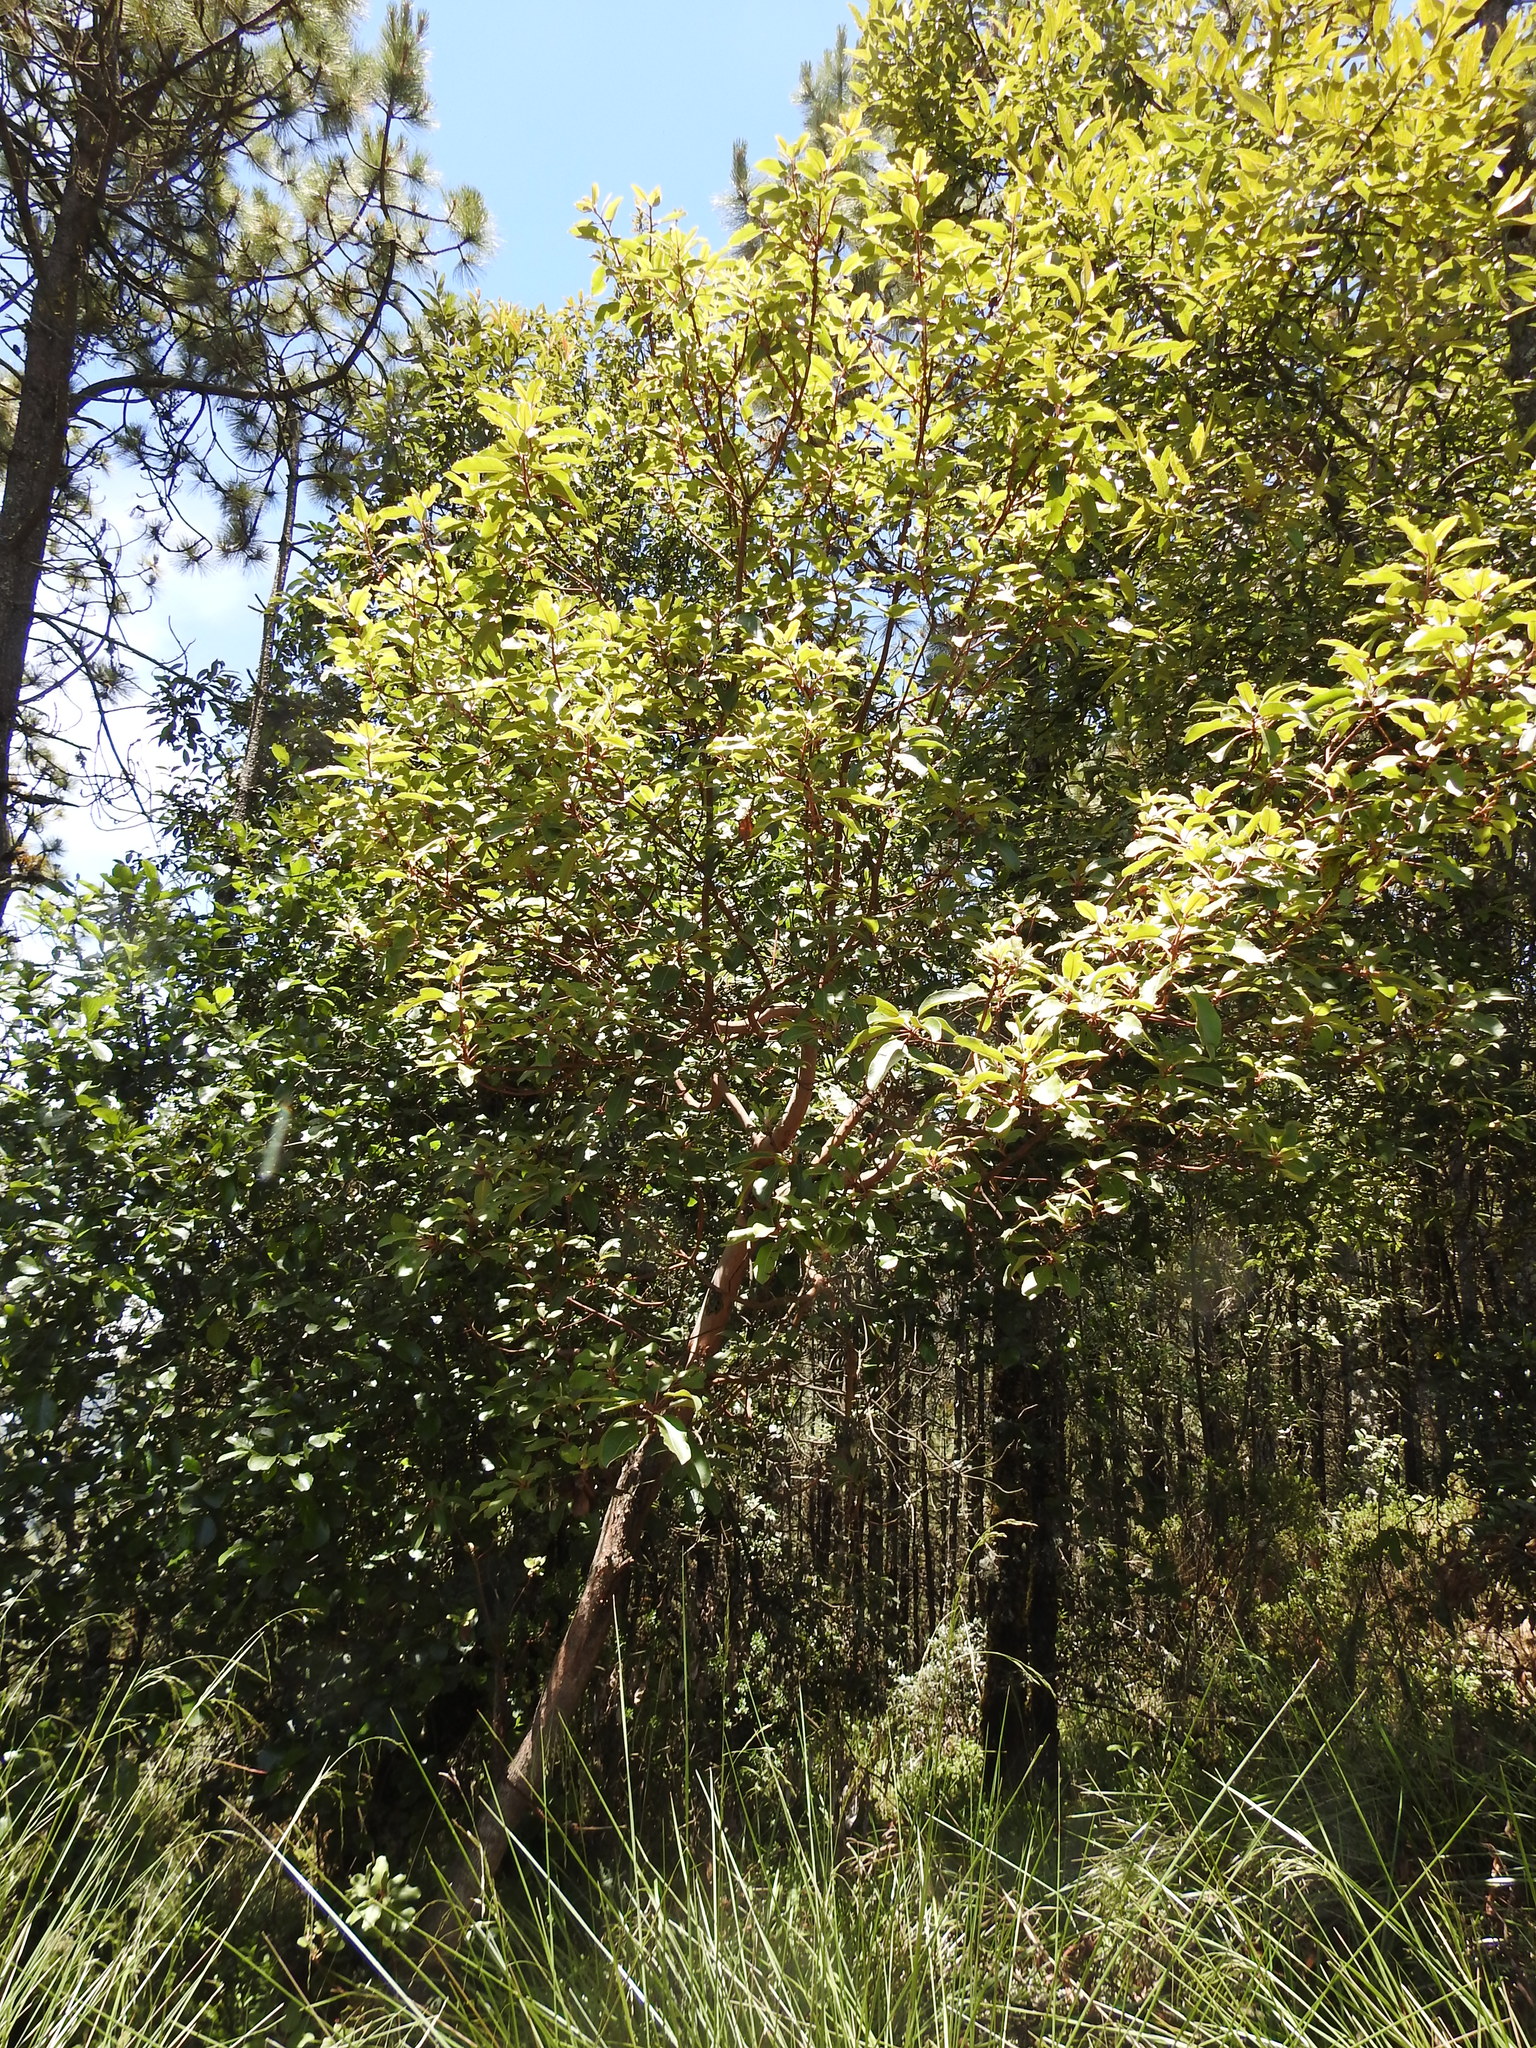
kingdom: Plantae
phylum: Tracheophyta
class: Magnoliopsida
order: Ericales
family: Ericaceae
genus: Arbutus
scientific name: Arbutus xalapensis
